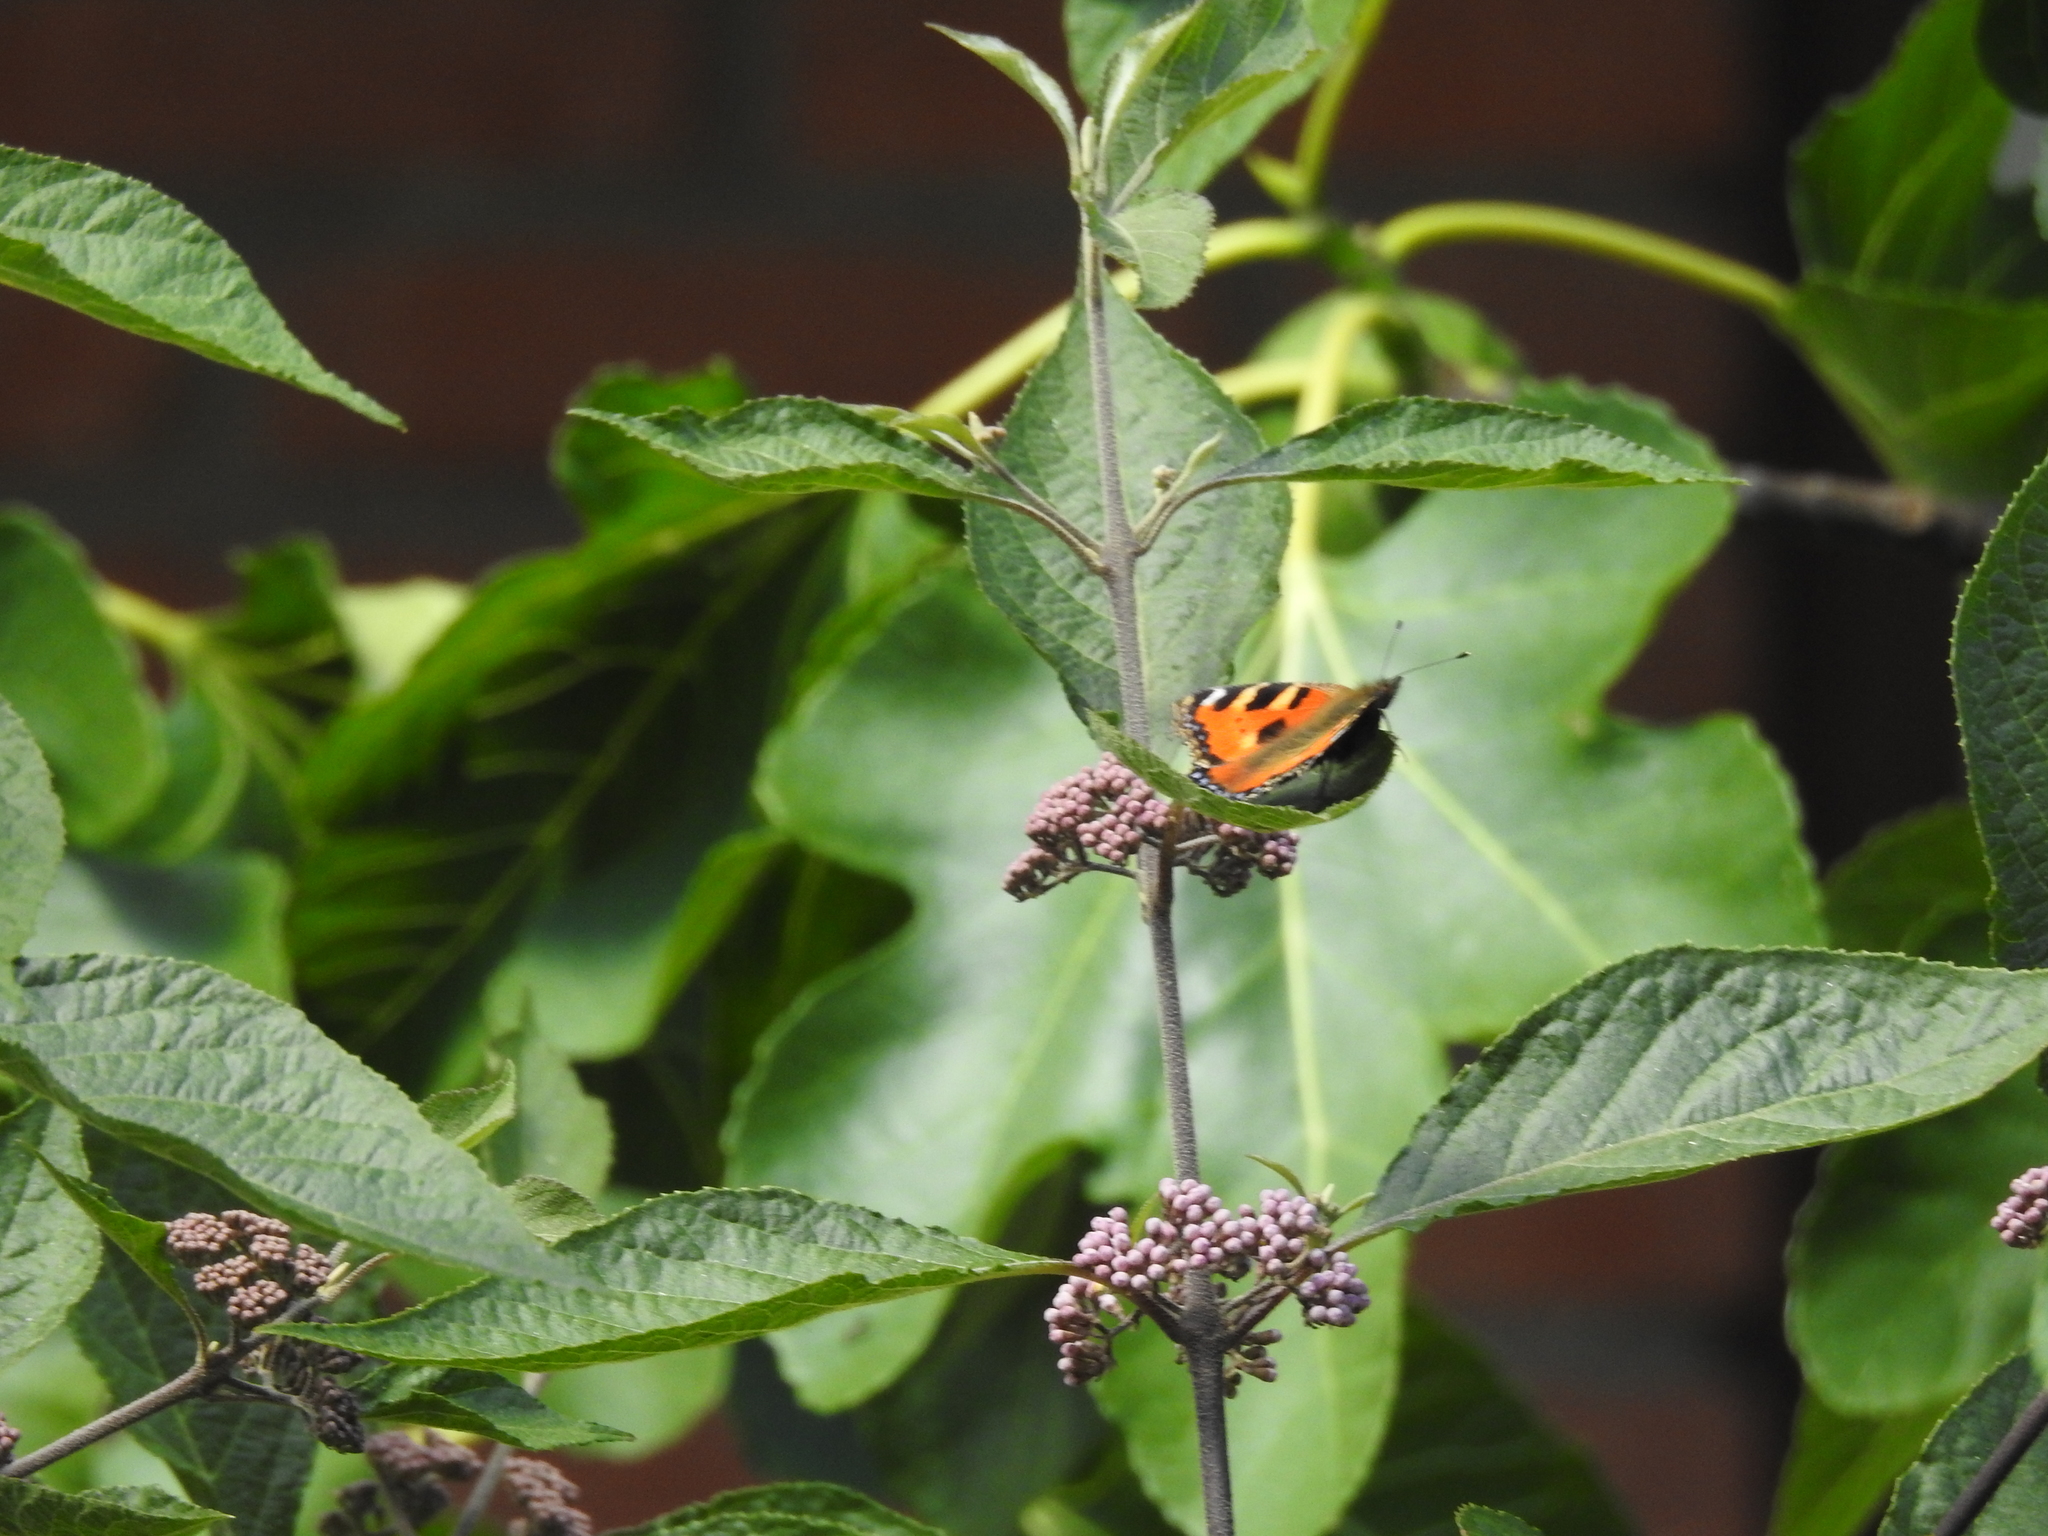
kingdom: Animalia
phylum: Arthropoda
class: Insecta
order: Lepidoptera
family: Nymphalidae
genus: Aglais
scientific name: Aglais urticae
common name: Small tortoiseshell
